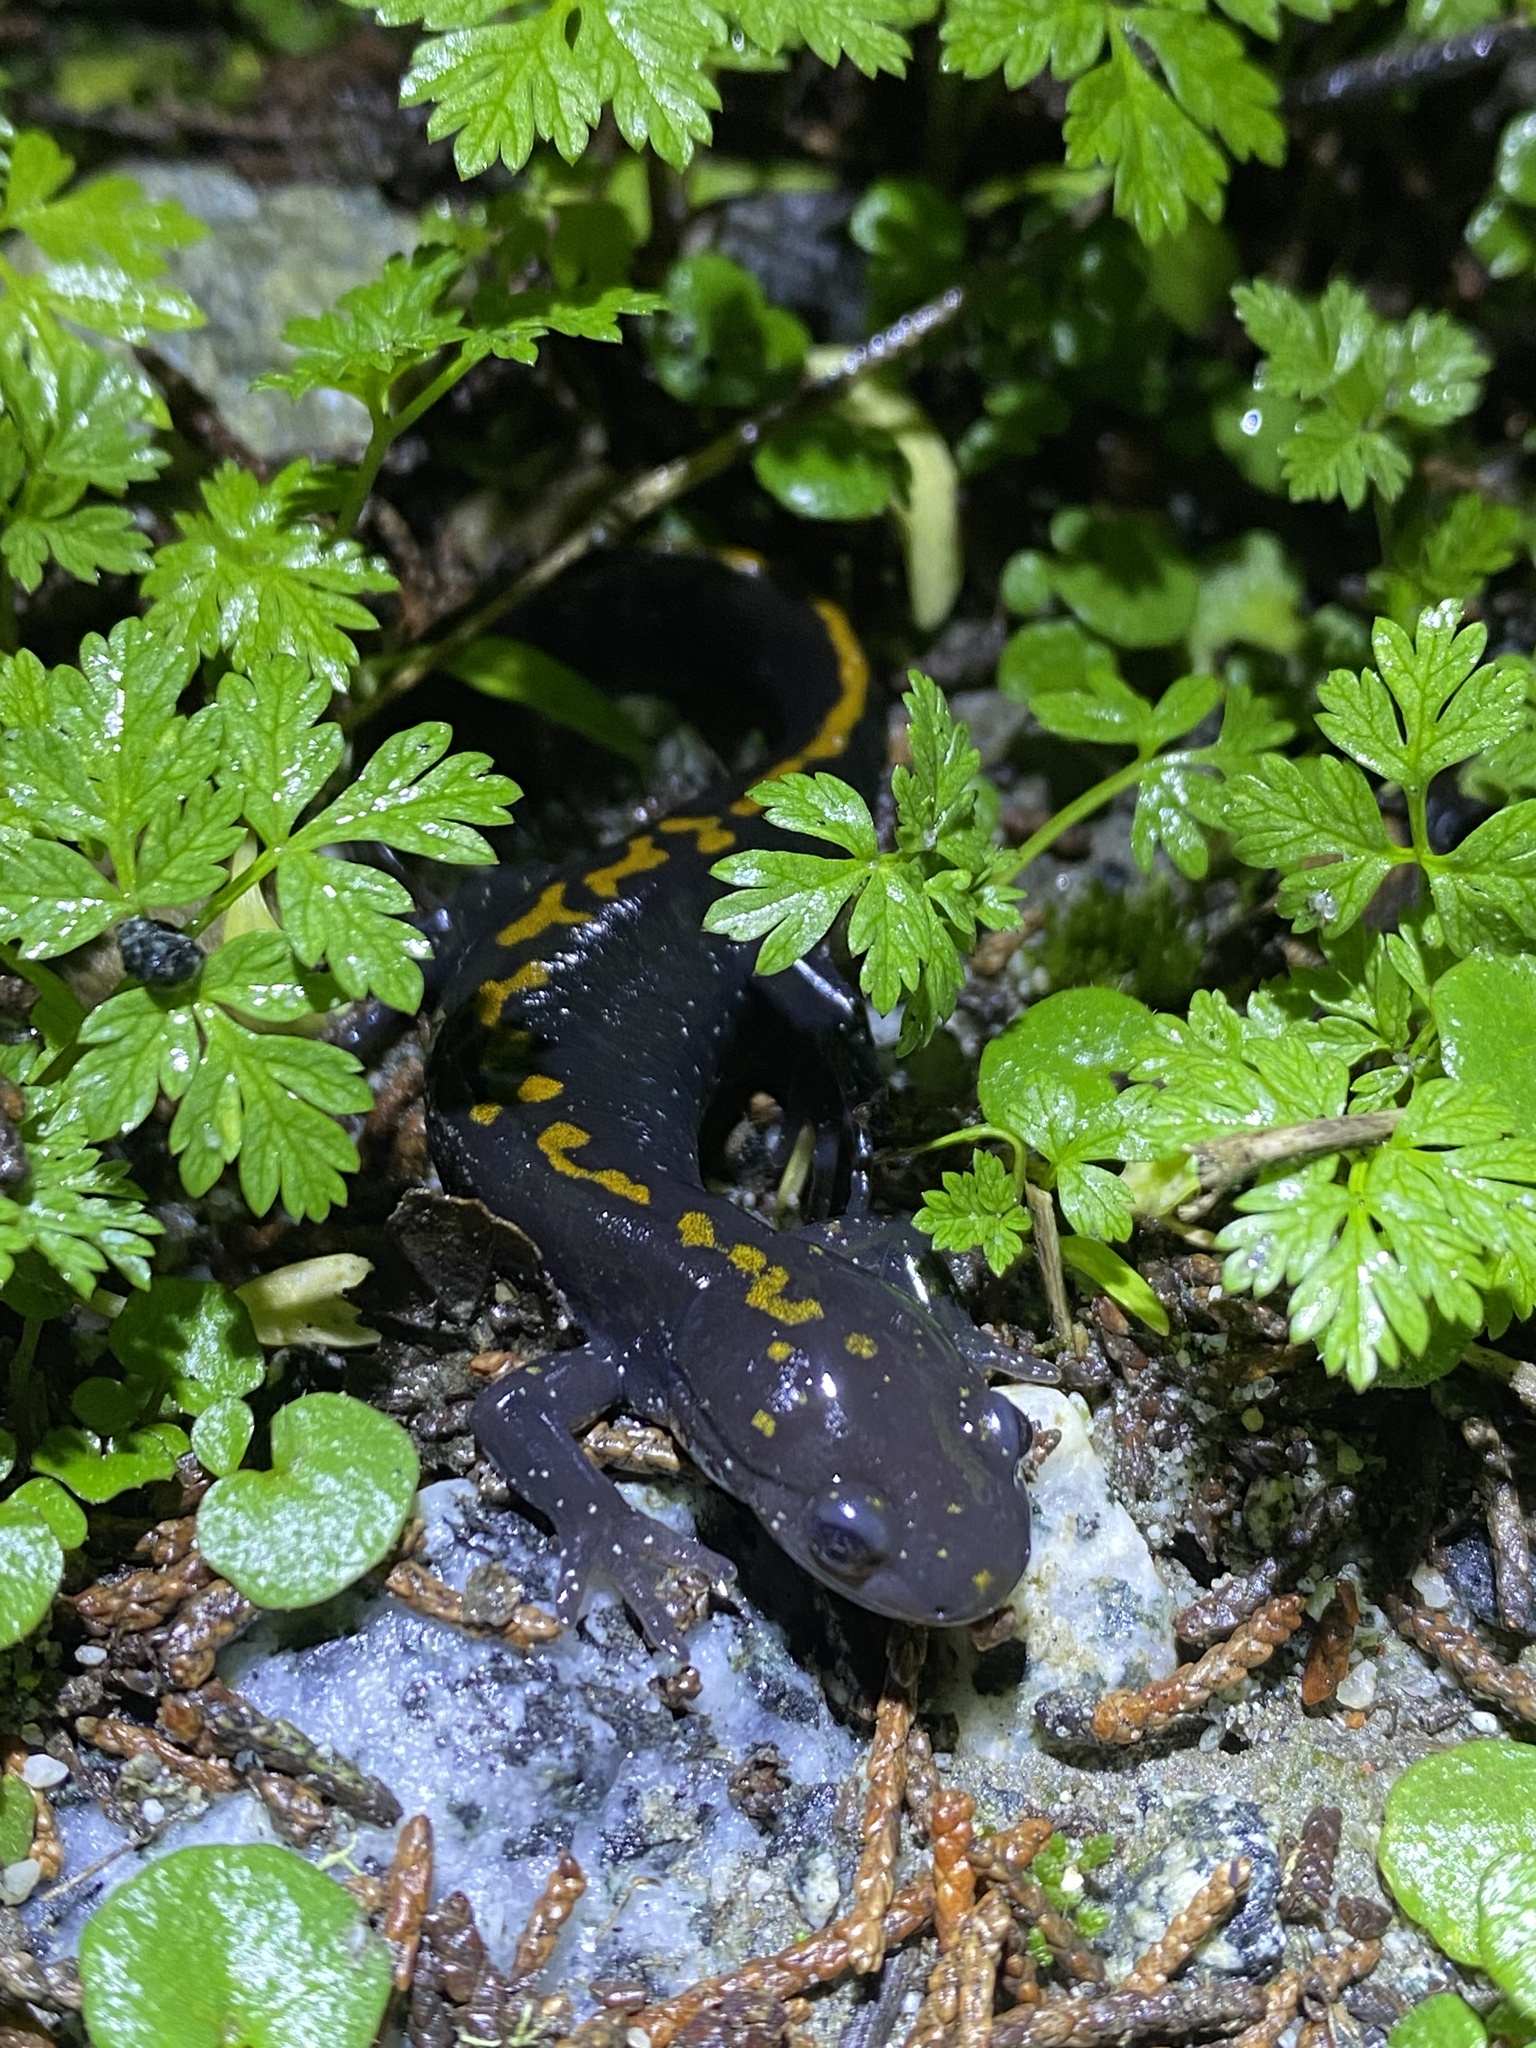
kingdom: Animalia
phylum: Chordata
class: Amphibia
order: Caudata
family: Ambystomatidae
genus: Ambystoma
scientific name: Ambystoma macrodactylum
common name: Long-toed salamander
